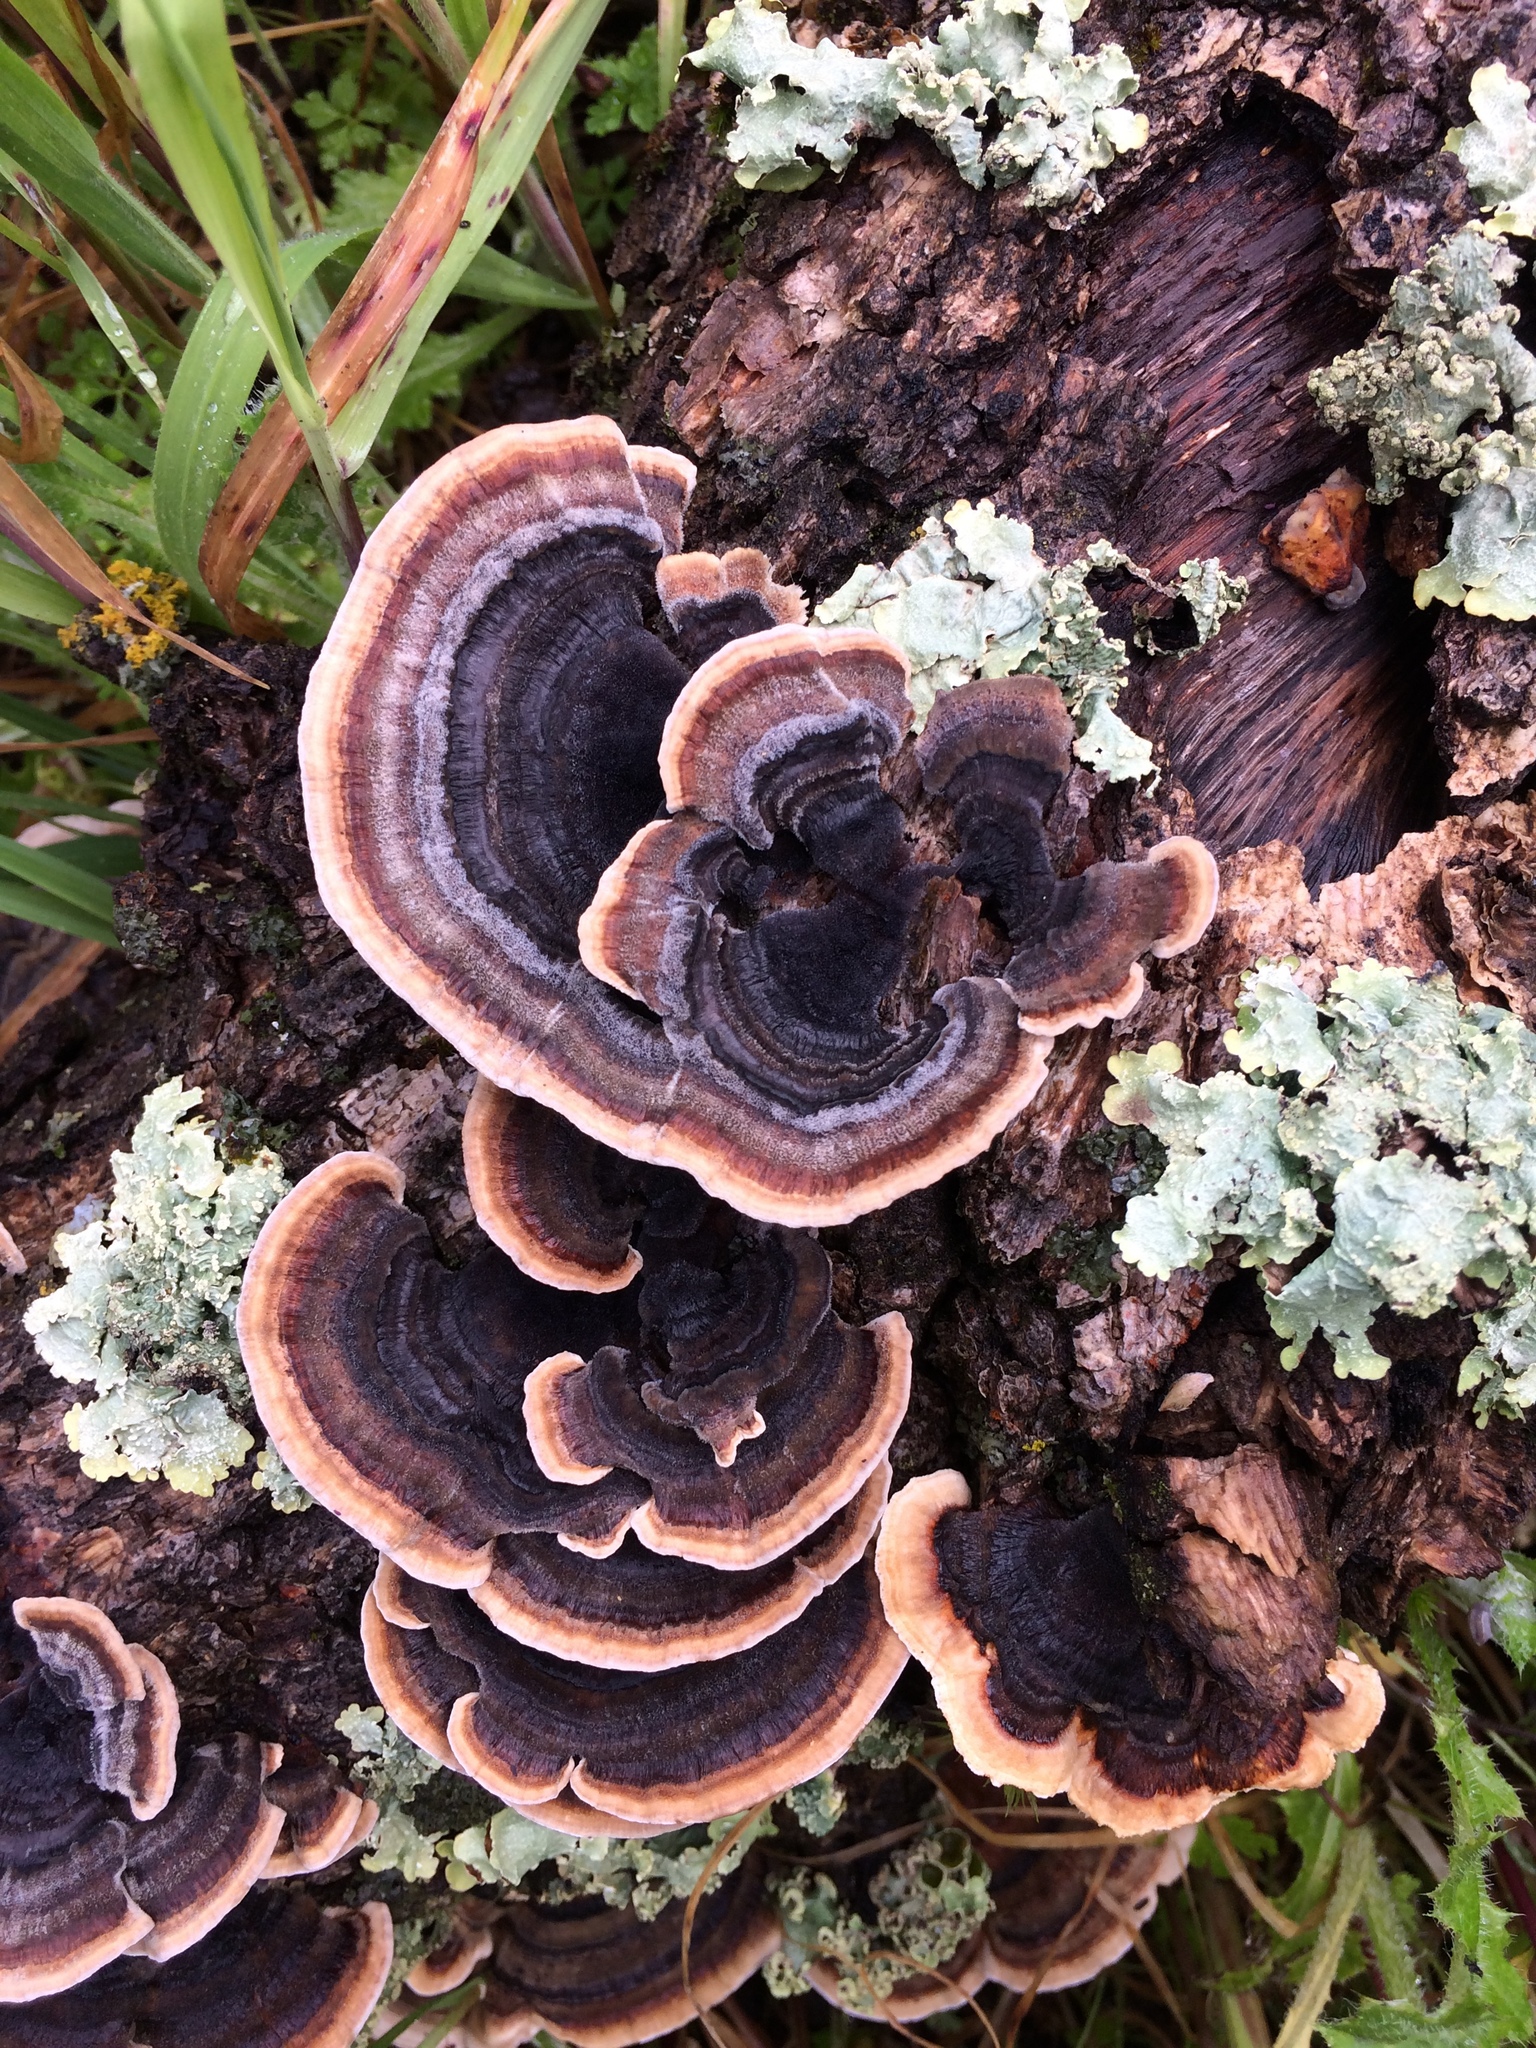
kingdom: Fungi
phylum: Basidiomycota
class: Agaricomycetes
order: Polyporales
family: Polyporaceae
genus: Trametes
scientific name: Trametes versicolor
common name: Turkeytail
